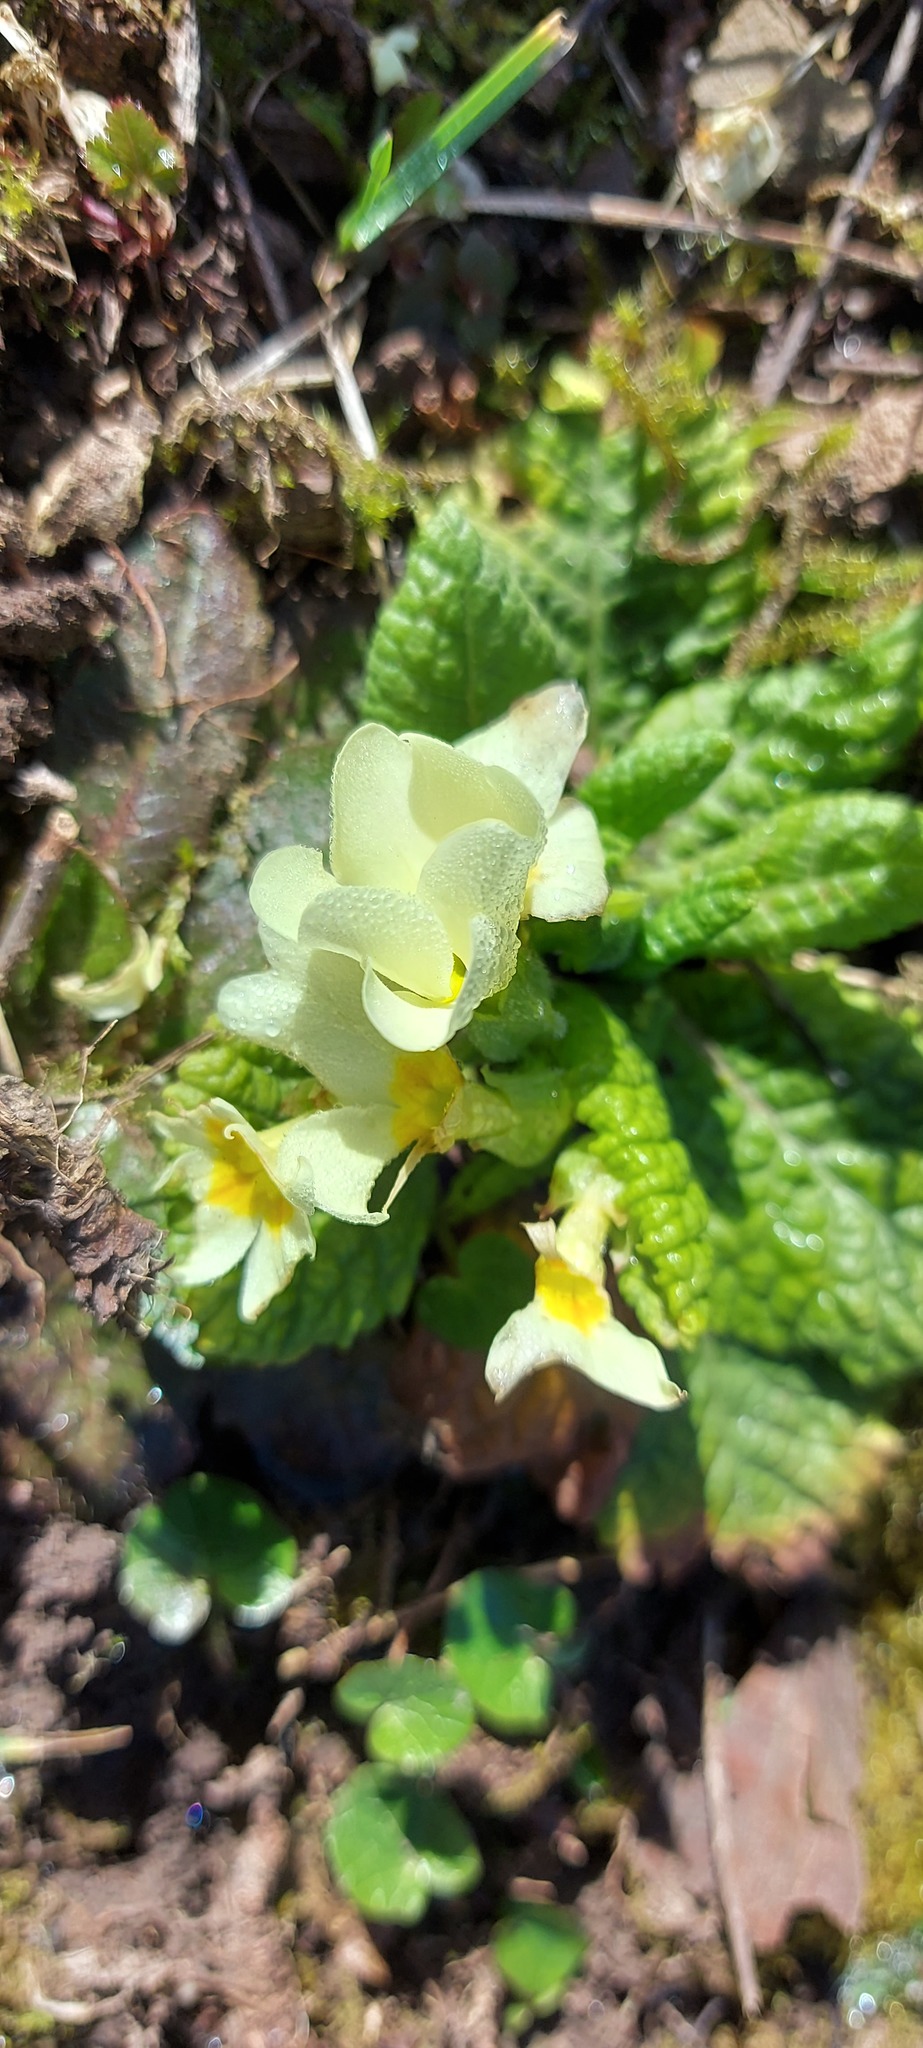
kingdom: Plantae
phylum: Tracheophyta
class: Magnoliopsida
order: Ericales
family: Primulaceae
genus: Primula
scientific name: Primula vulgaris
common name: Primrose
